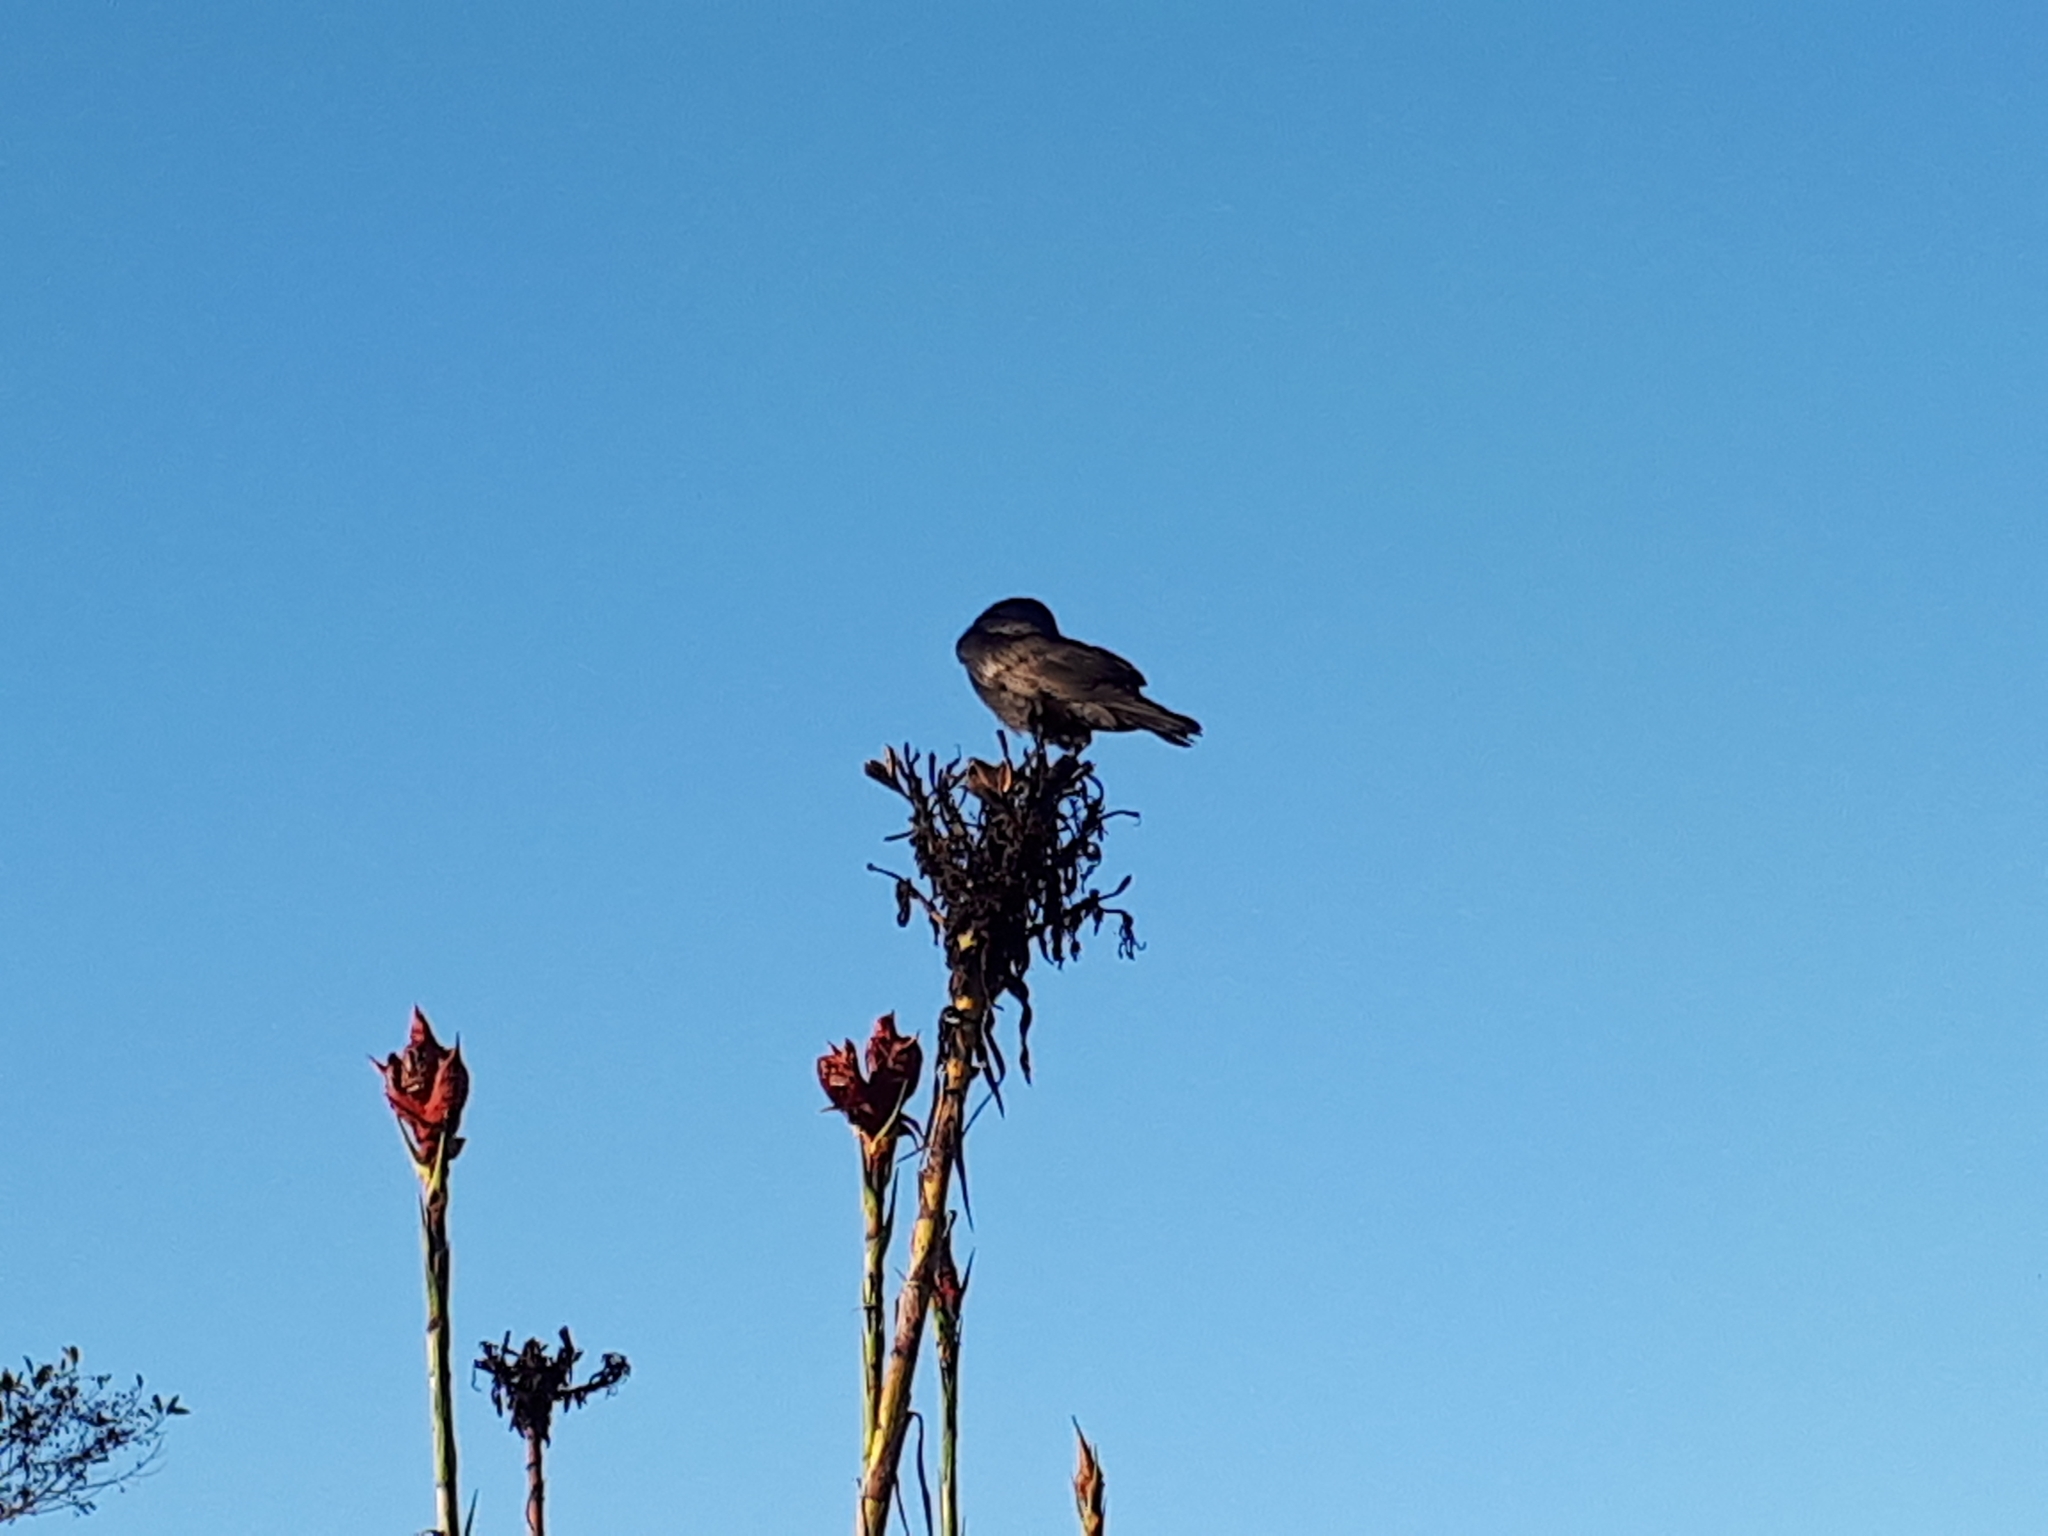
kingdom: Animalia
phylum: Chordata
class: Aves
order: Passeriformes
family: Corvidae
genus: Corvus
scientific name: Corvus coronoides
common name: Australian raven
